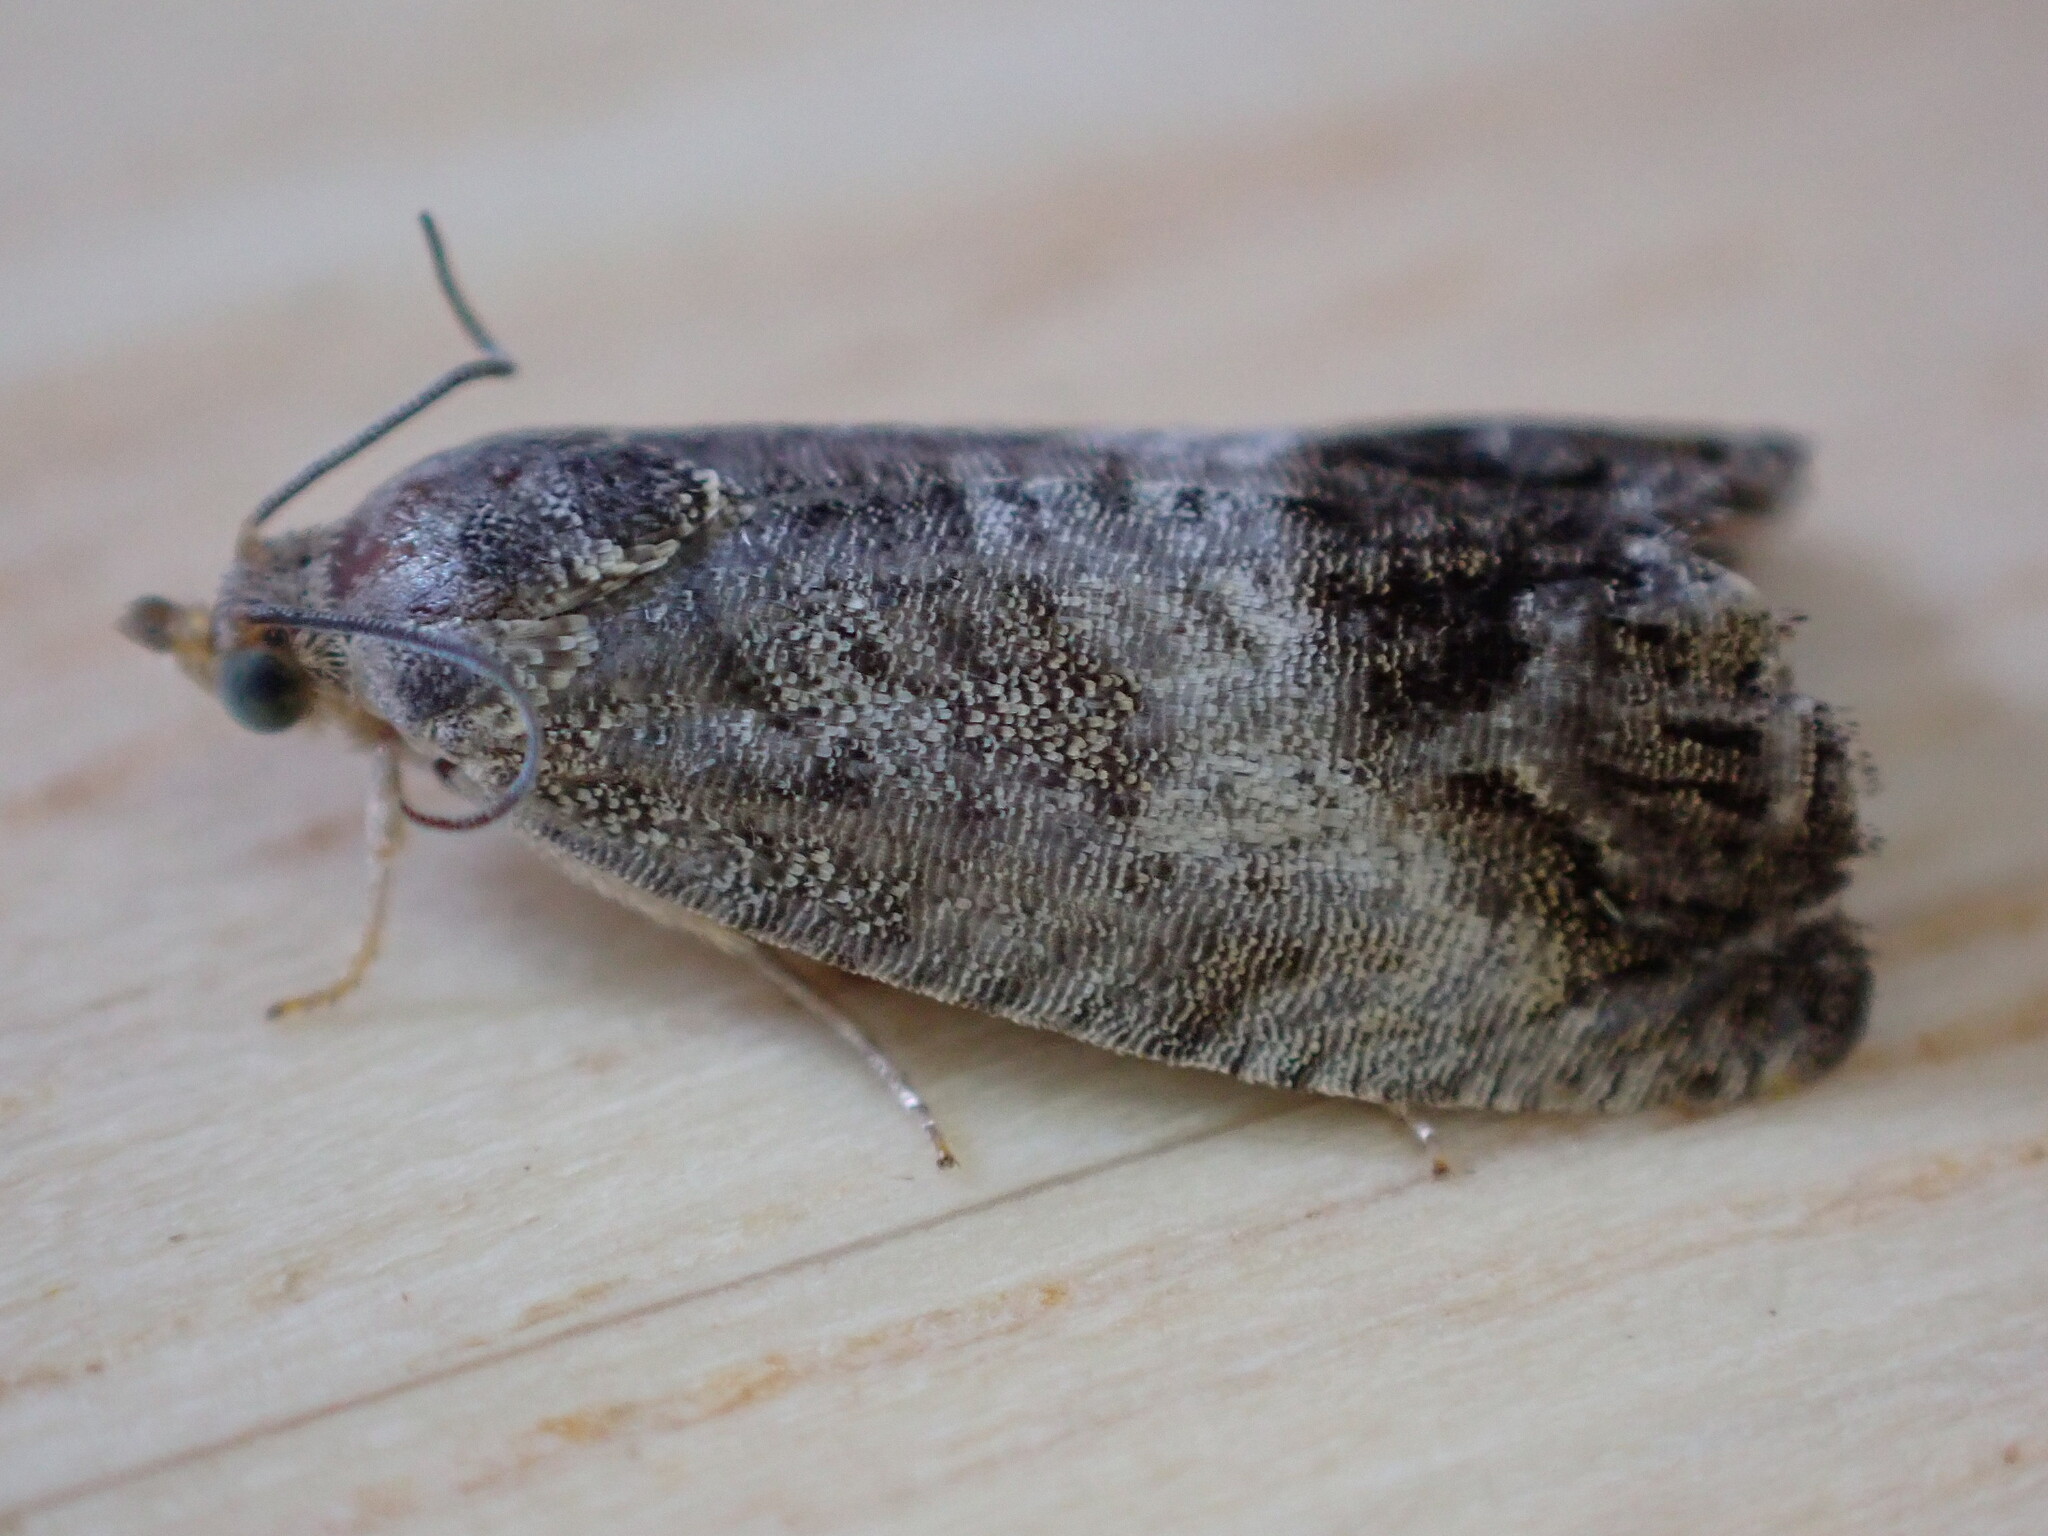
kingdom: Animalia
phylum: Arthropoda
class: Insecta
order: Lepidoptera
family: Tortricidae
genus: Cydia
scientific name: Cydia splendana
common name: De: kastanienwickler, eichenwickler es: oruga de la castaña fr: carpocapse des châtaignes it: cidia o tortrice tardiva delle castagne pt: bichado das castanhas gb: acorn moth, chestnut fruit tortrix
